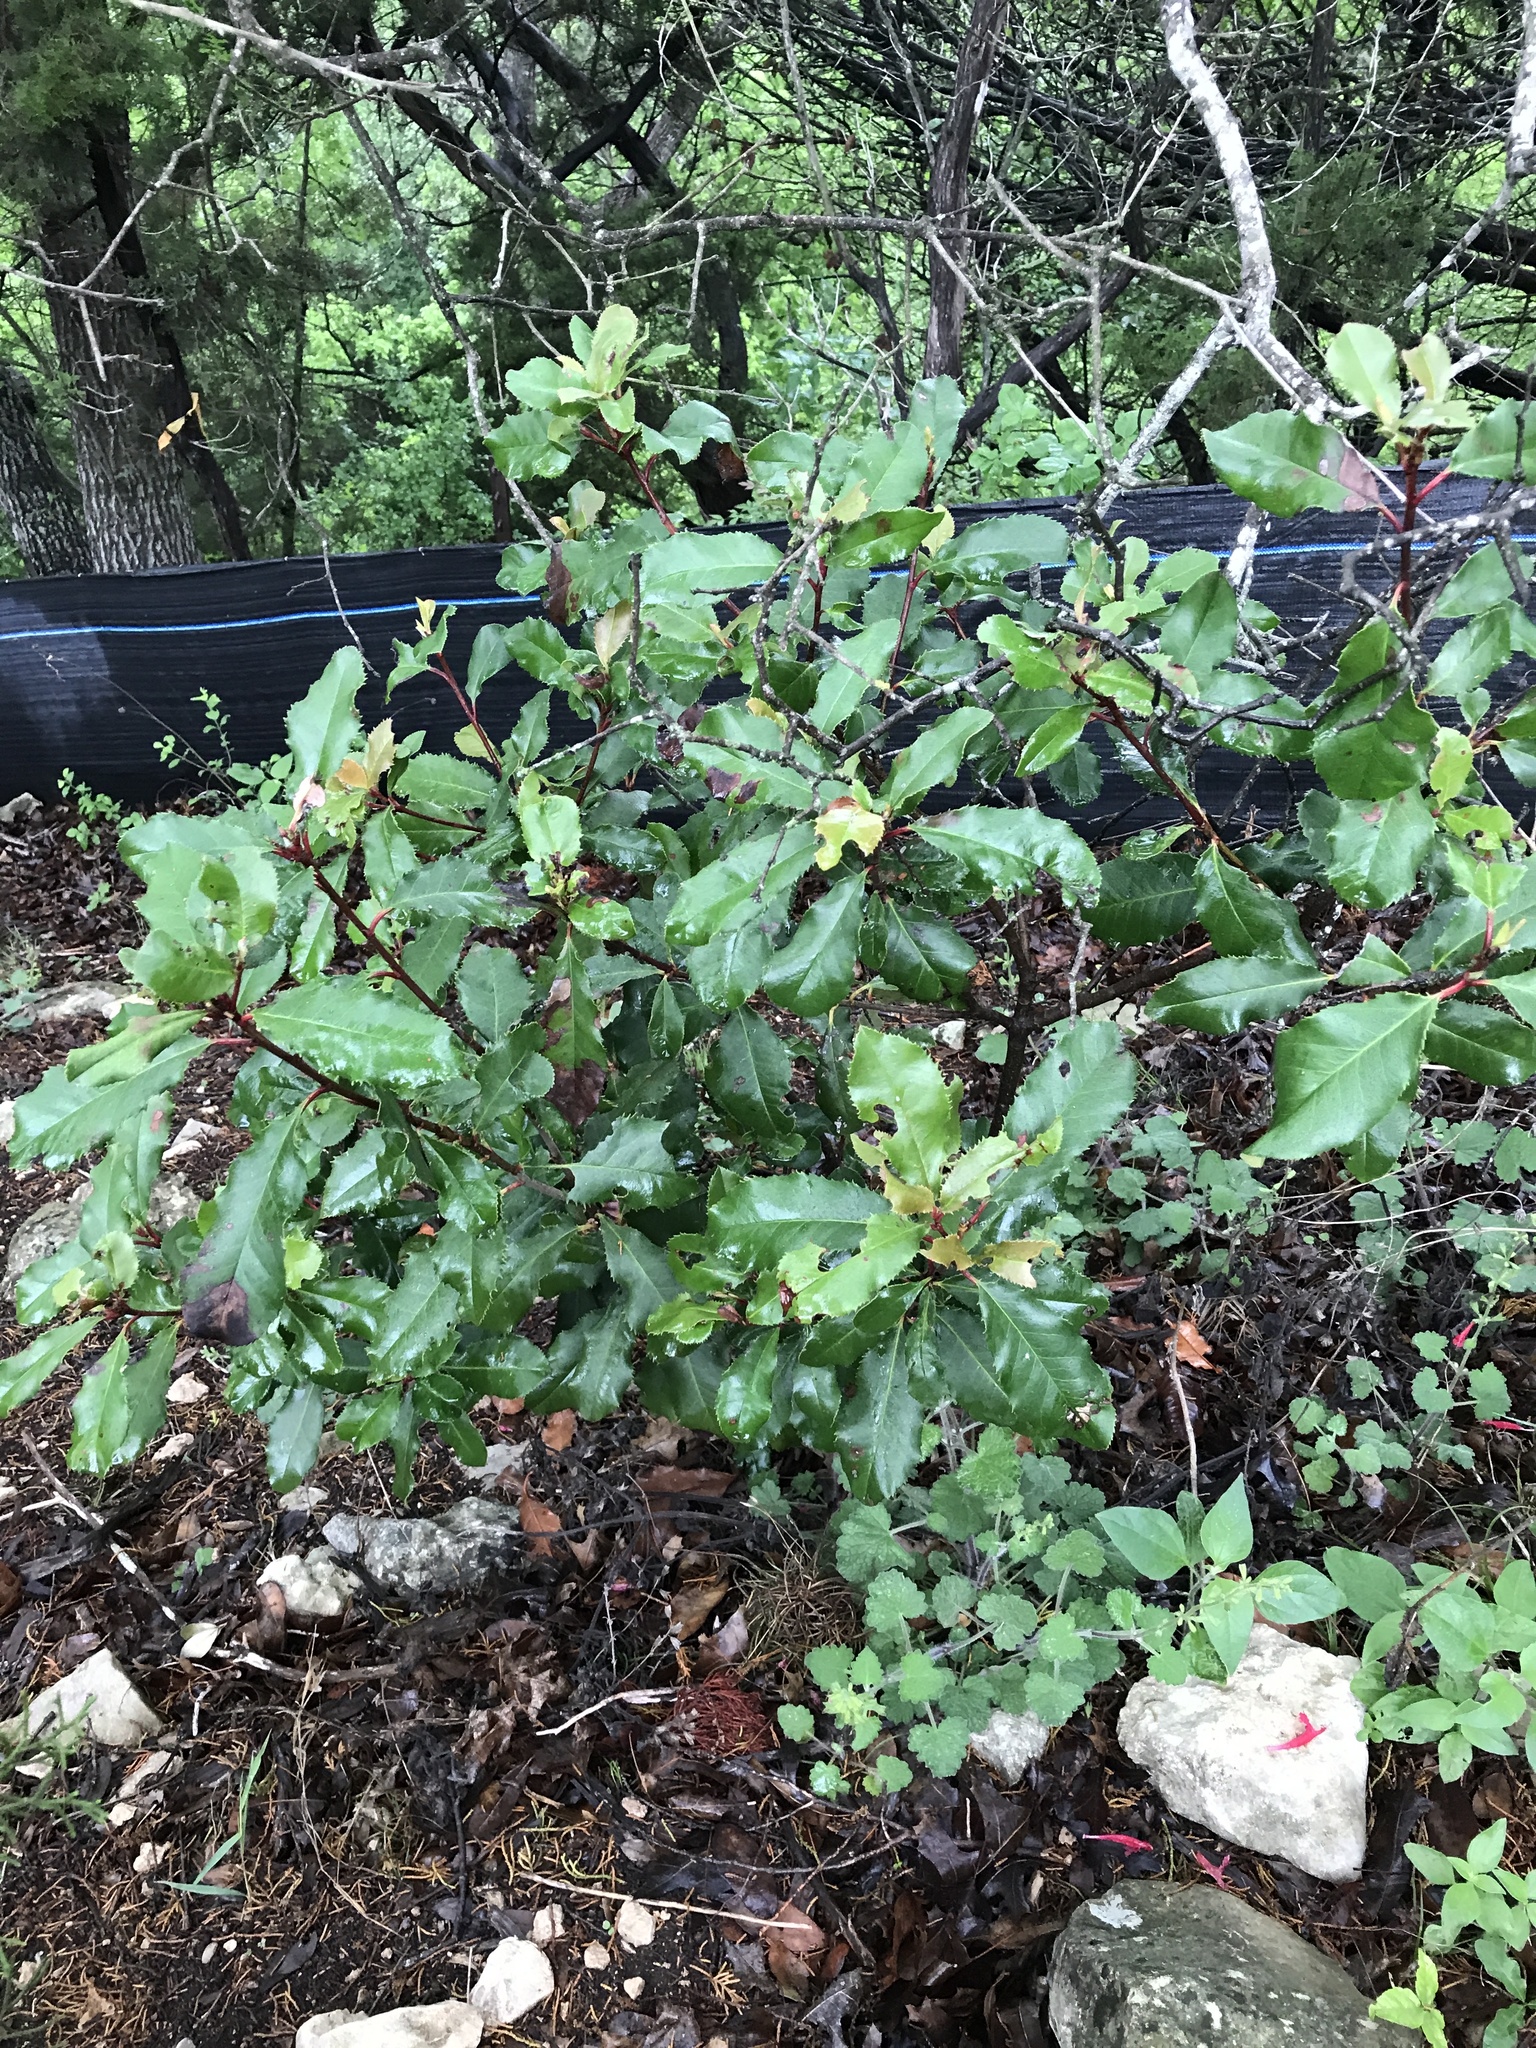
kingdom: Plantae
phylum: Tracheophyta
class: Magnoliopsida
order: Rosales
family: Rosaceae
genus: Photinia
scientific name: Photinia serratifolia
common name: Taiwanese photinia
